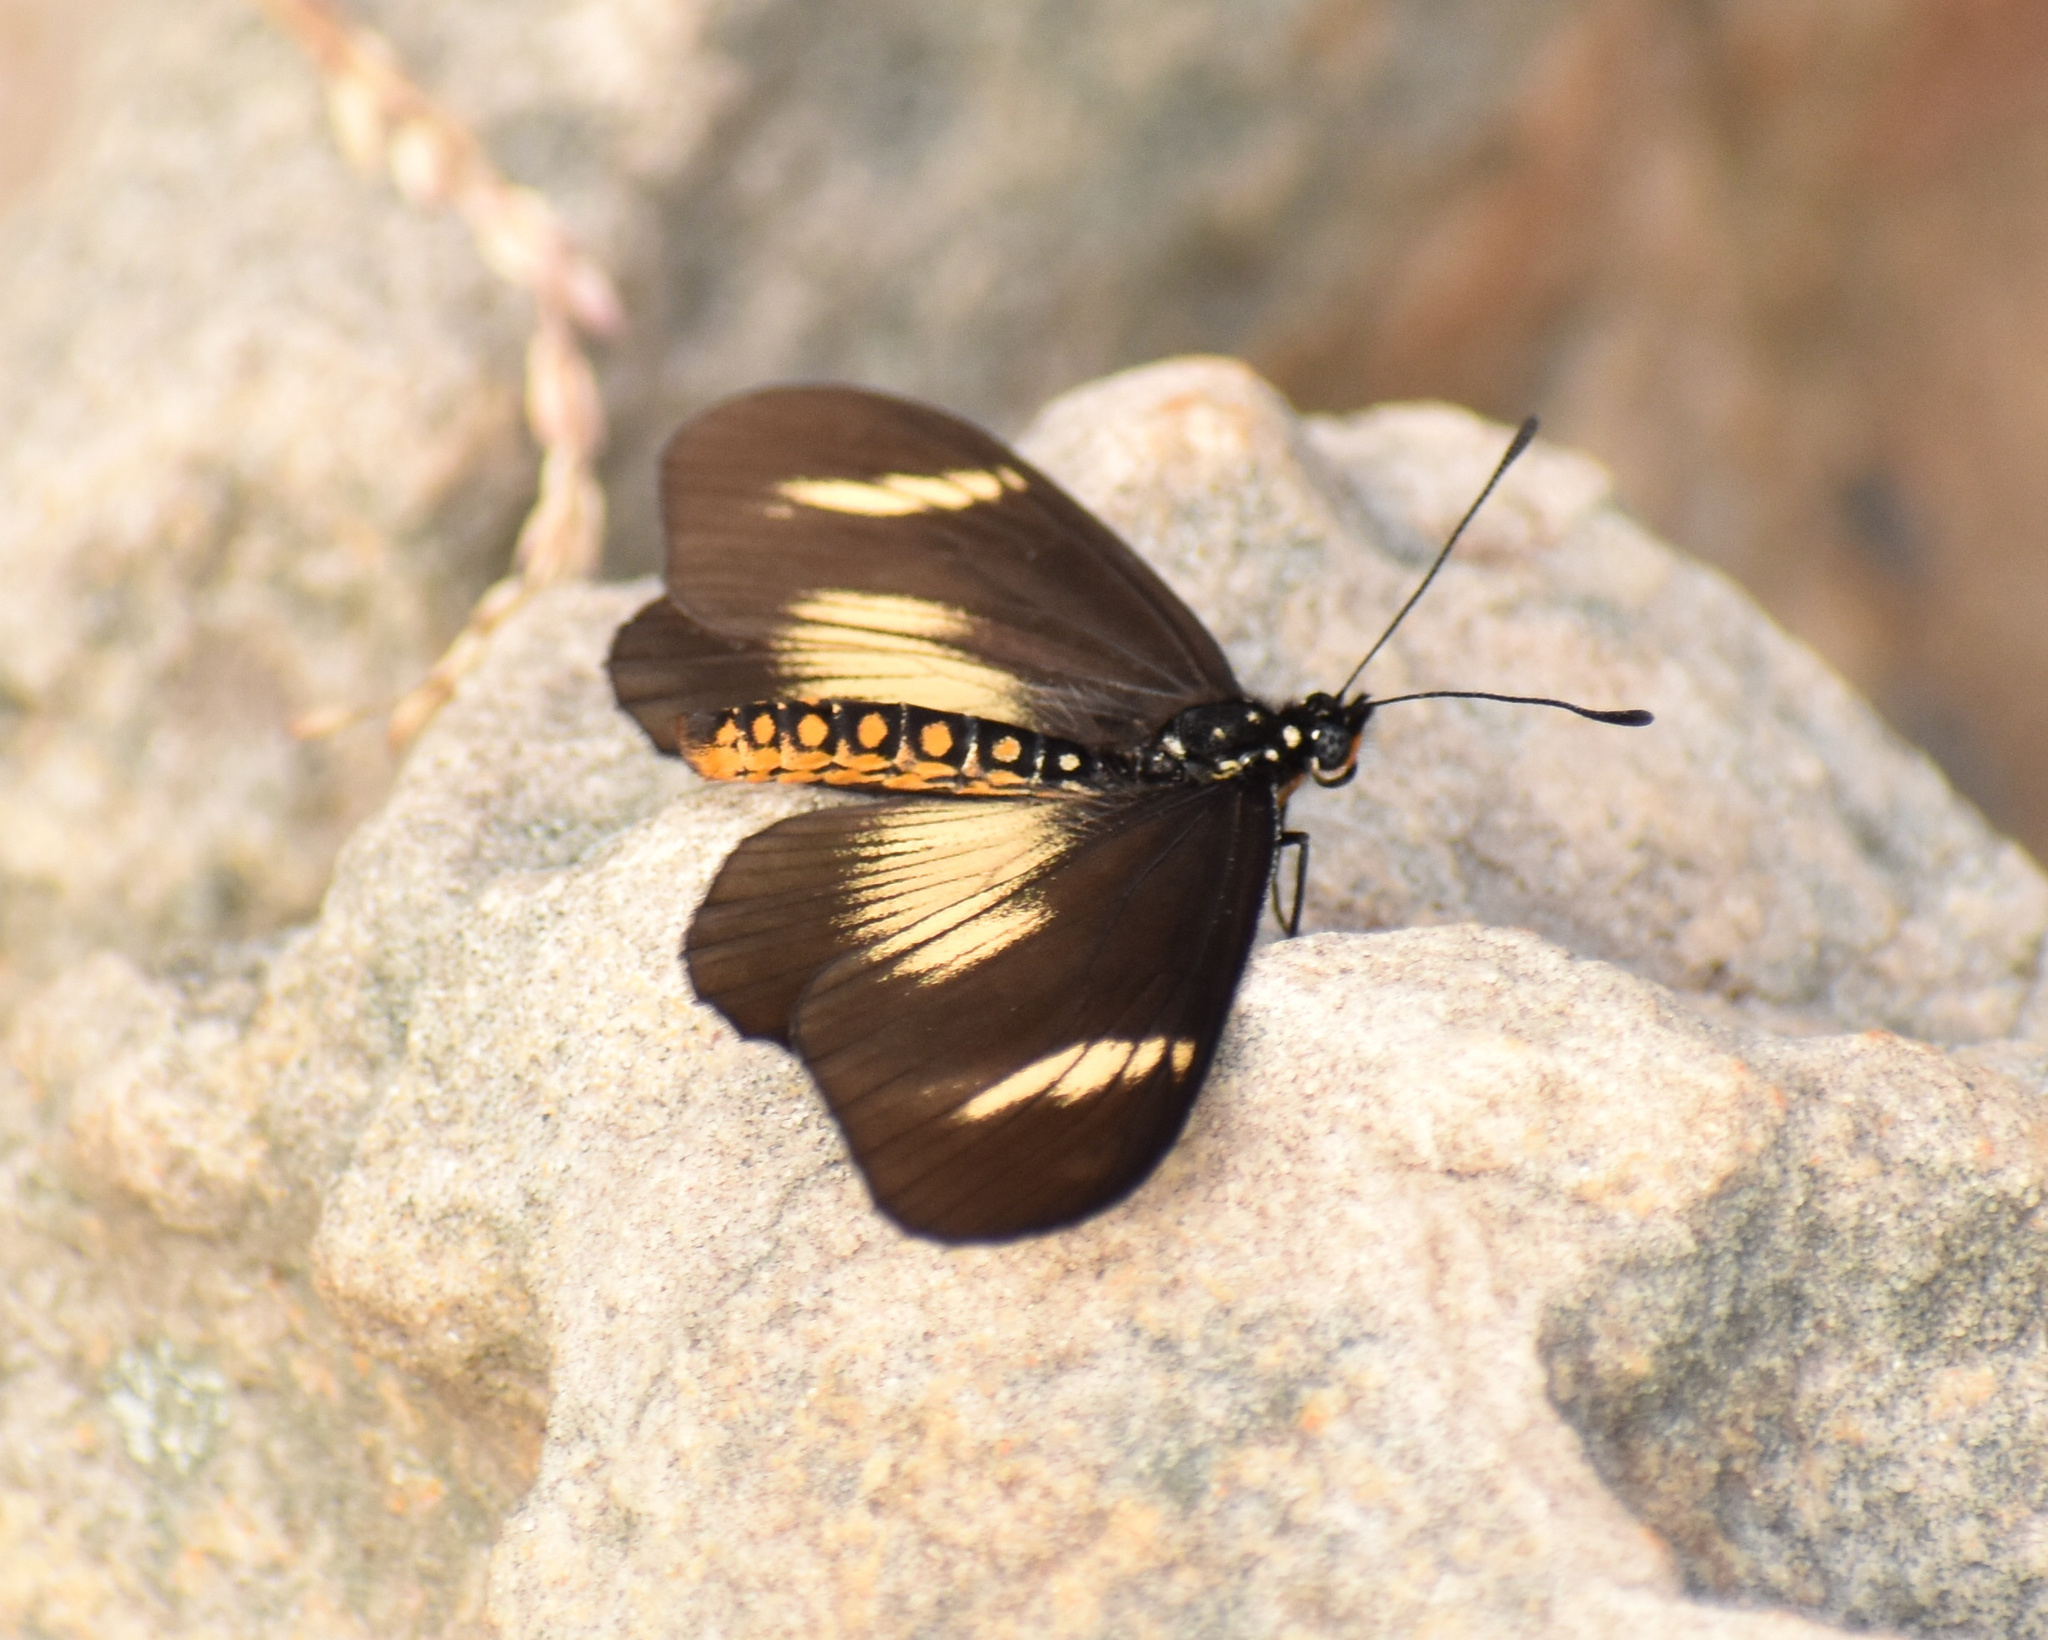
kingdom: Animalia
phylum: Arthropoda
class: Insecta
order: Lepidoptera
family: Nymphalidae
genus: Acraea
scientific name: Acraea esebria
